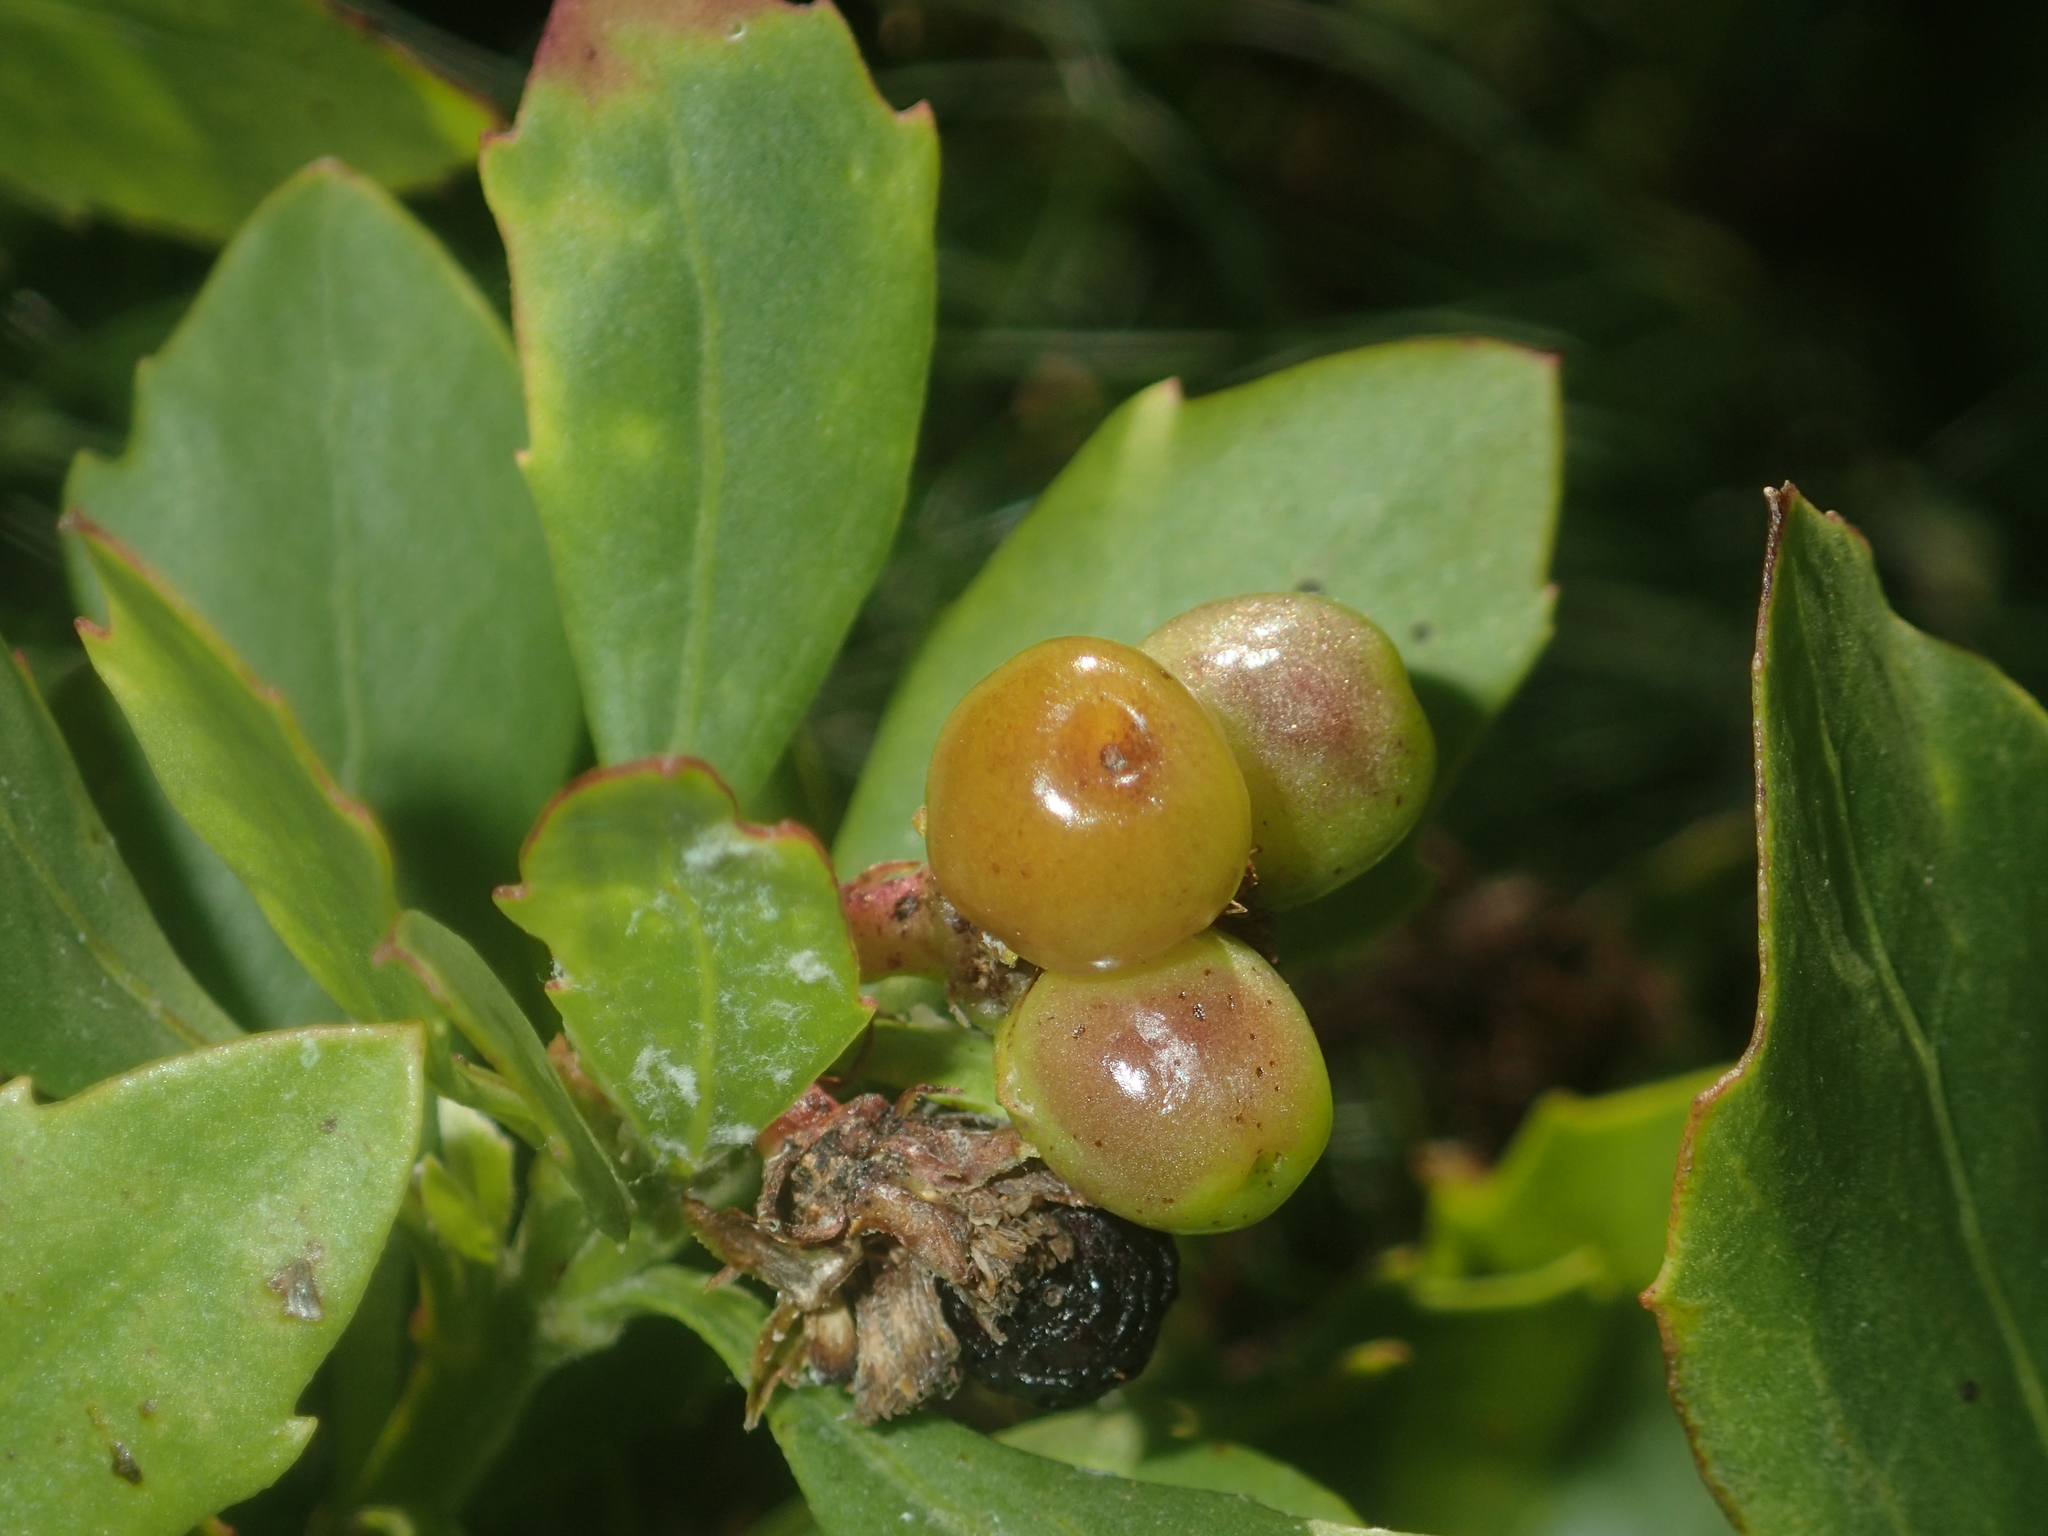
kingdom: Plantae
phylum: Tracheophyta
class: Magnoliopsida
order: Asterales
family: Asteraceae
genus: Osteospermum
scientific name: Osteospermum moniliferum
